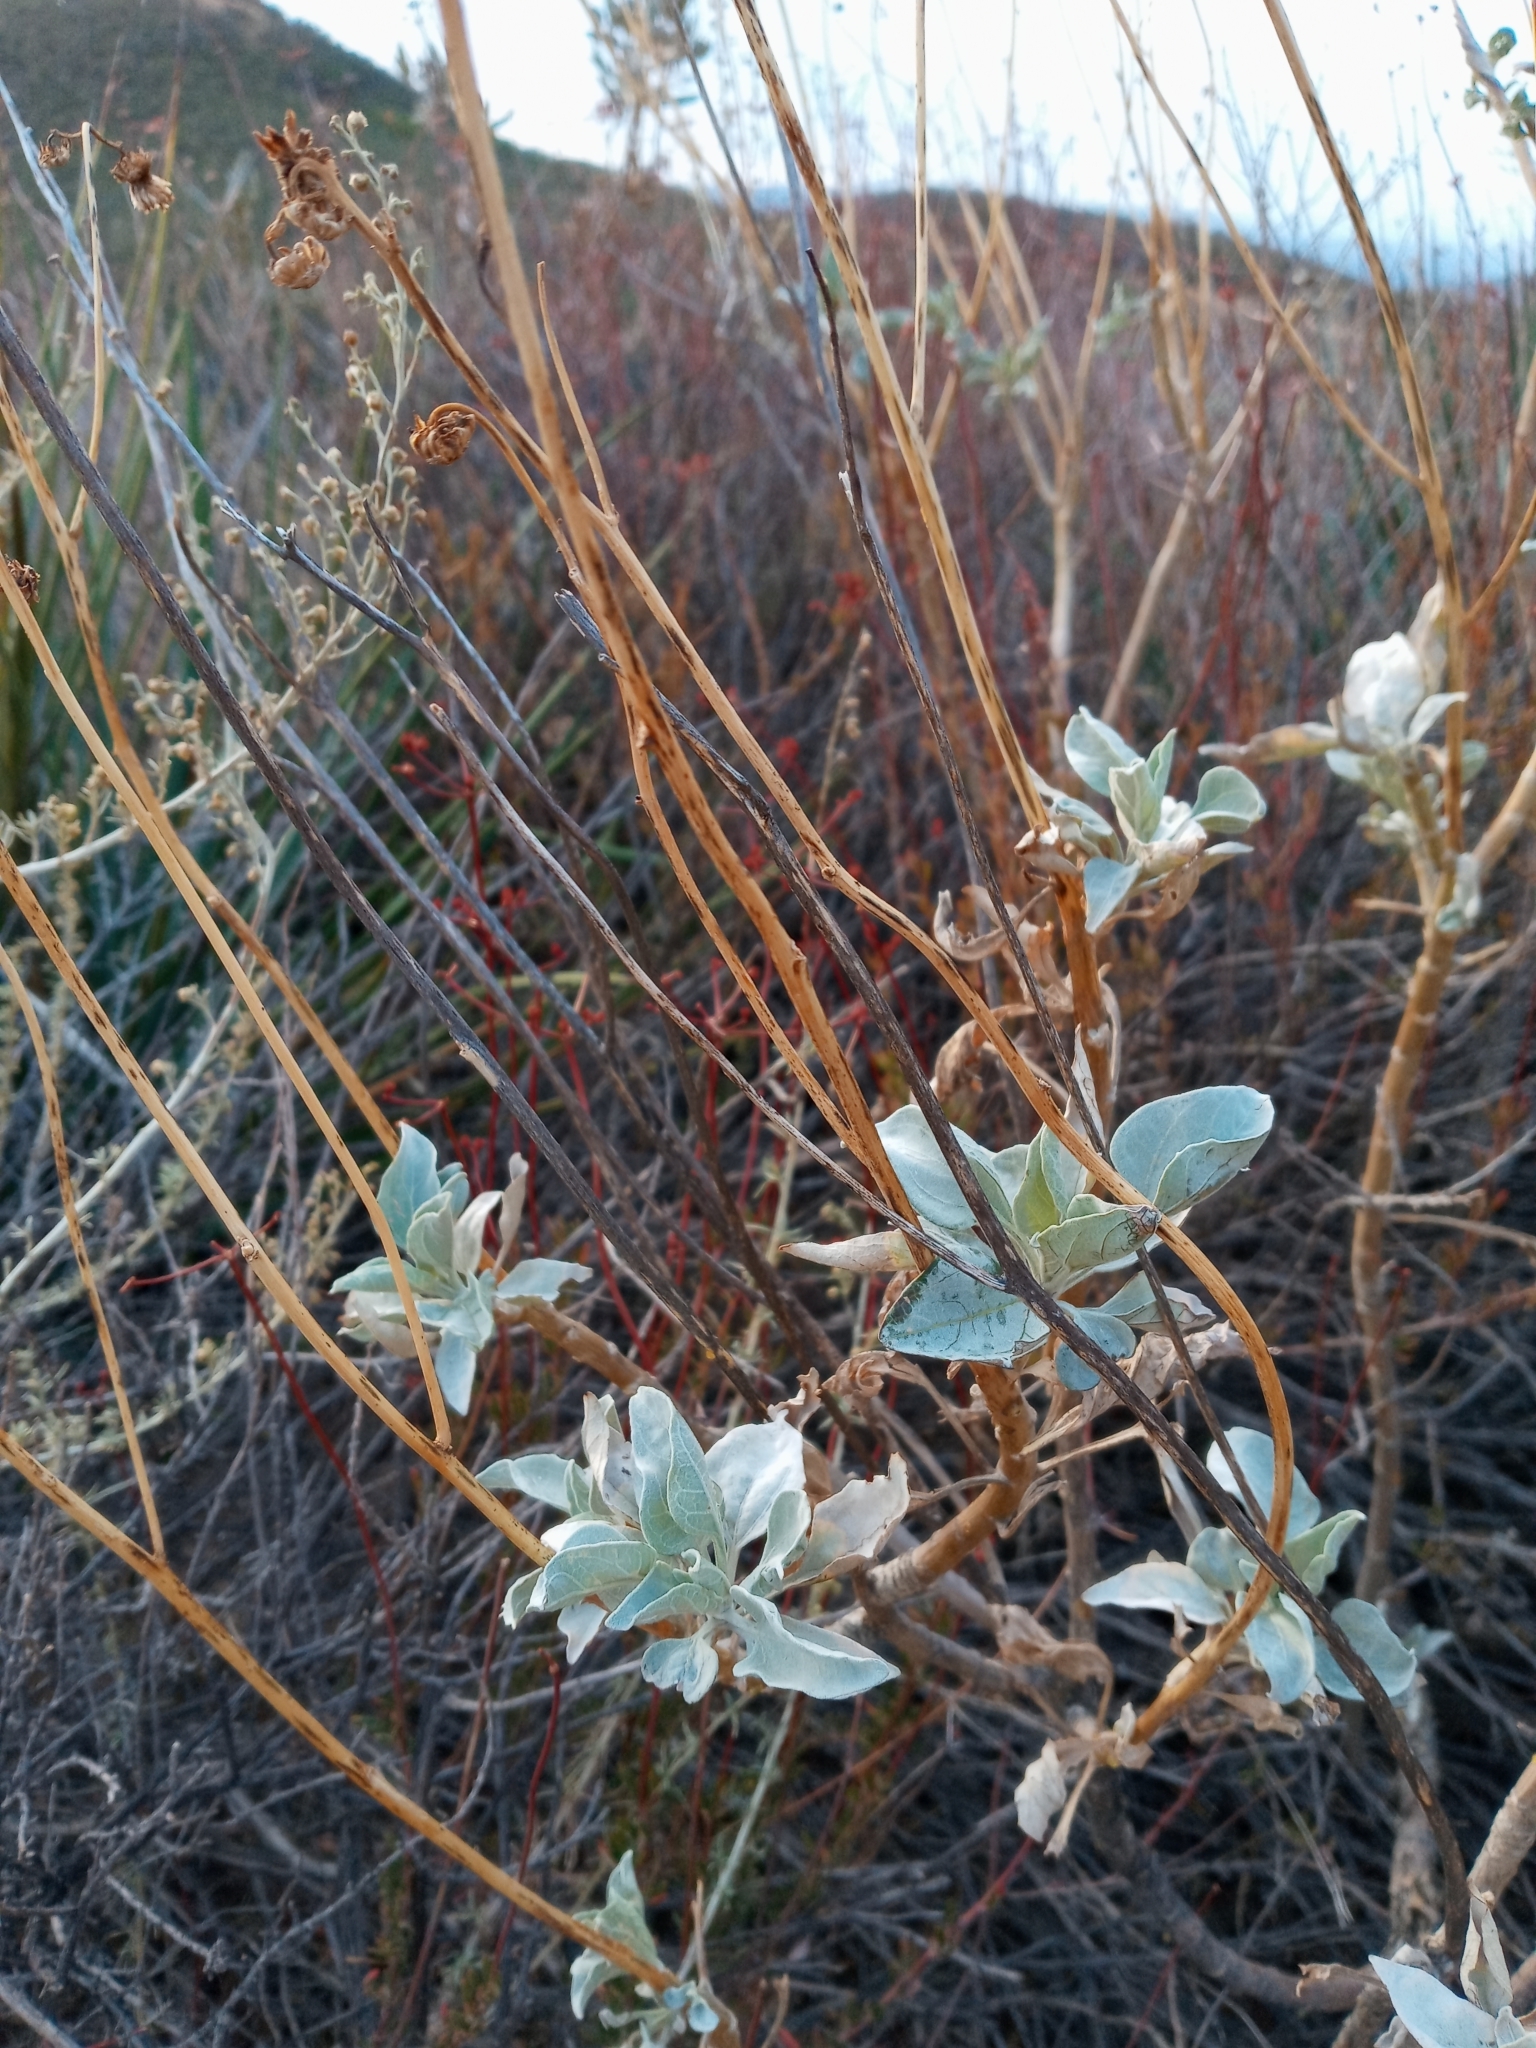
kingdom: Plantae
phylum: Tracheophyta
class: Magnoliopsida
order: Asterales
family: Asteraceae
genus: Encelia
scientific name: Encelia farinosa
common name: Brittlebush
